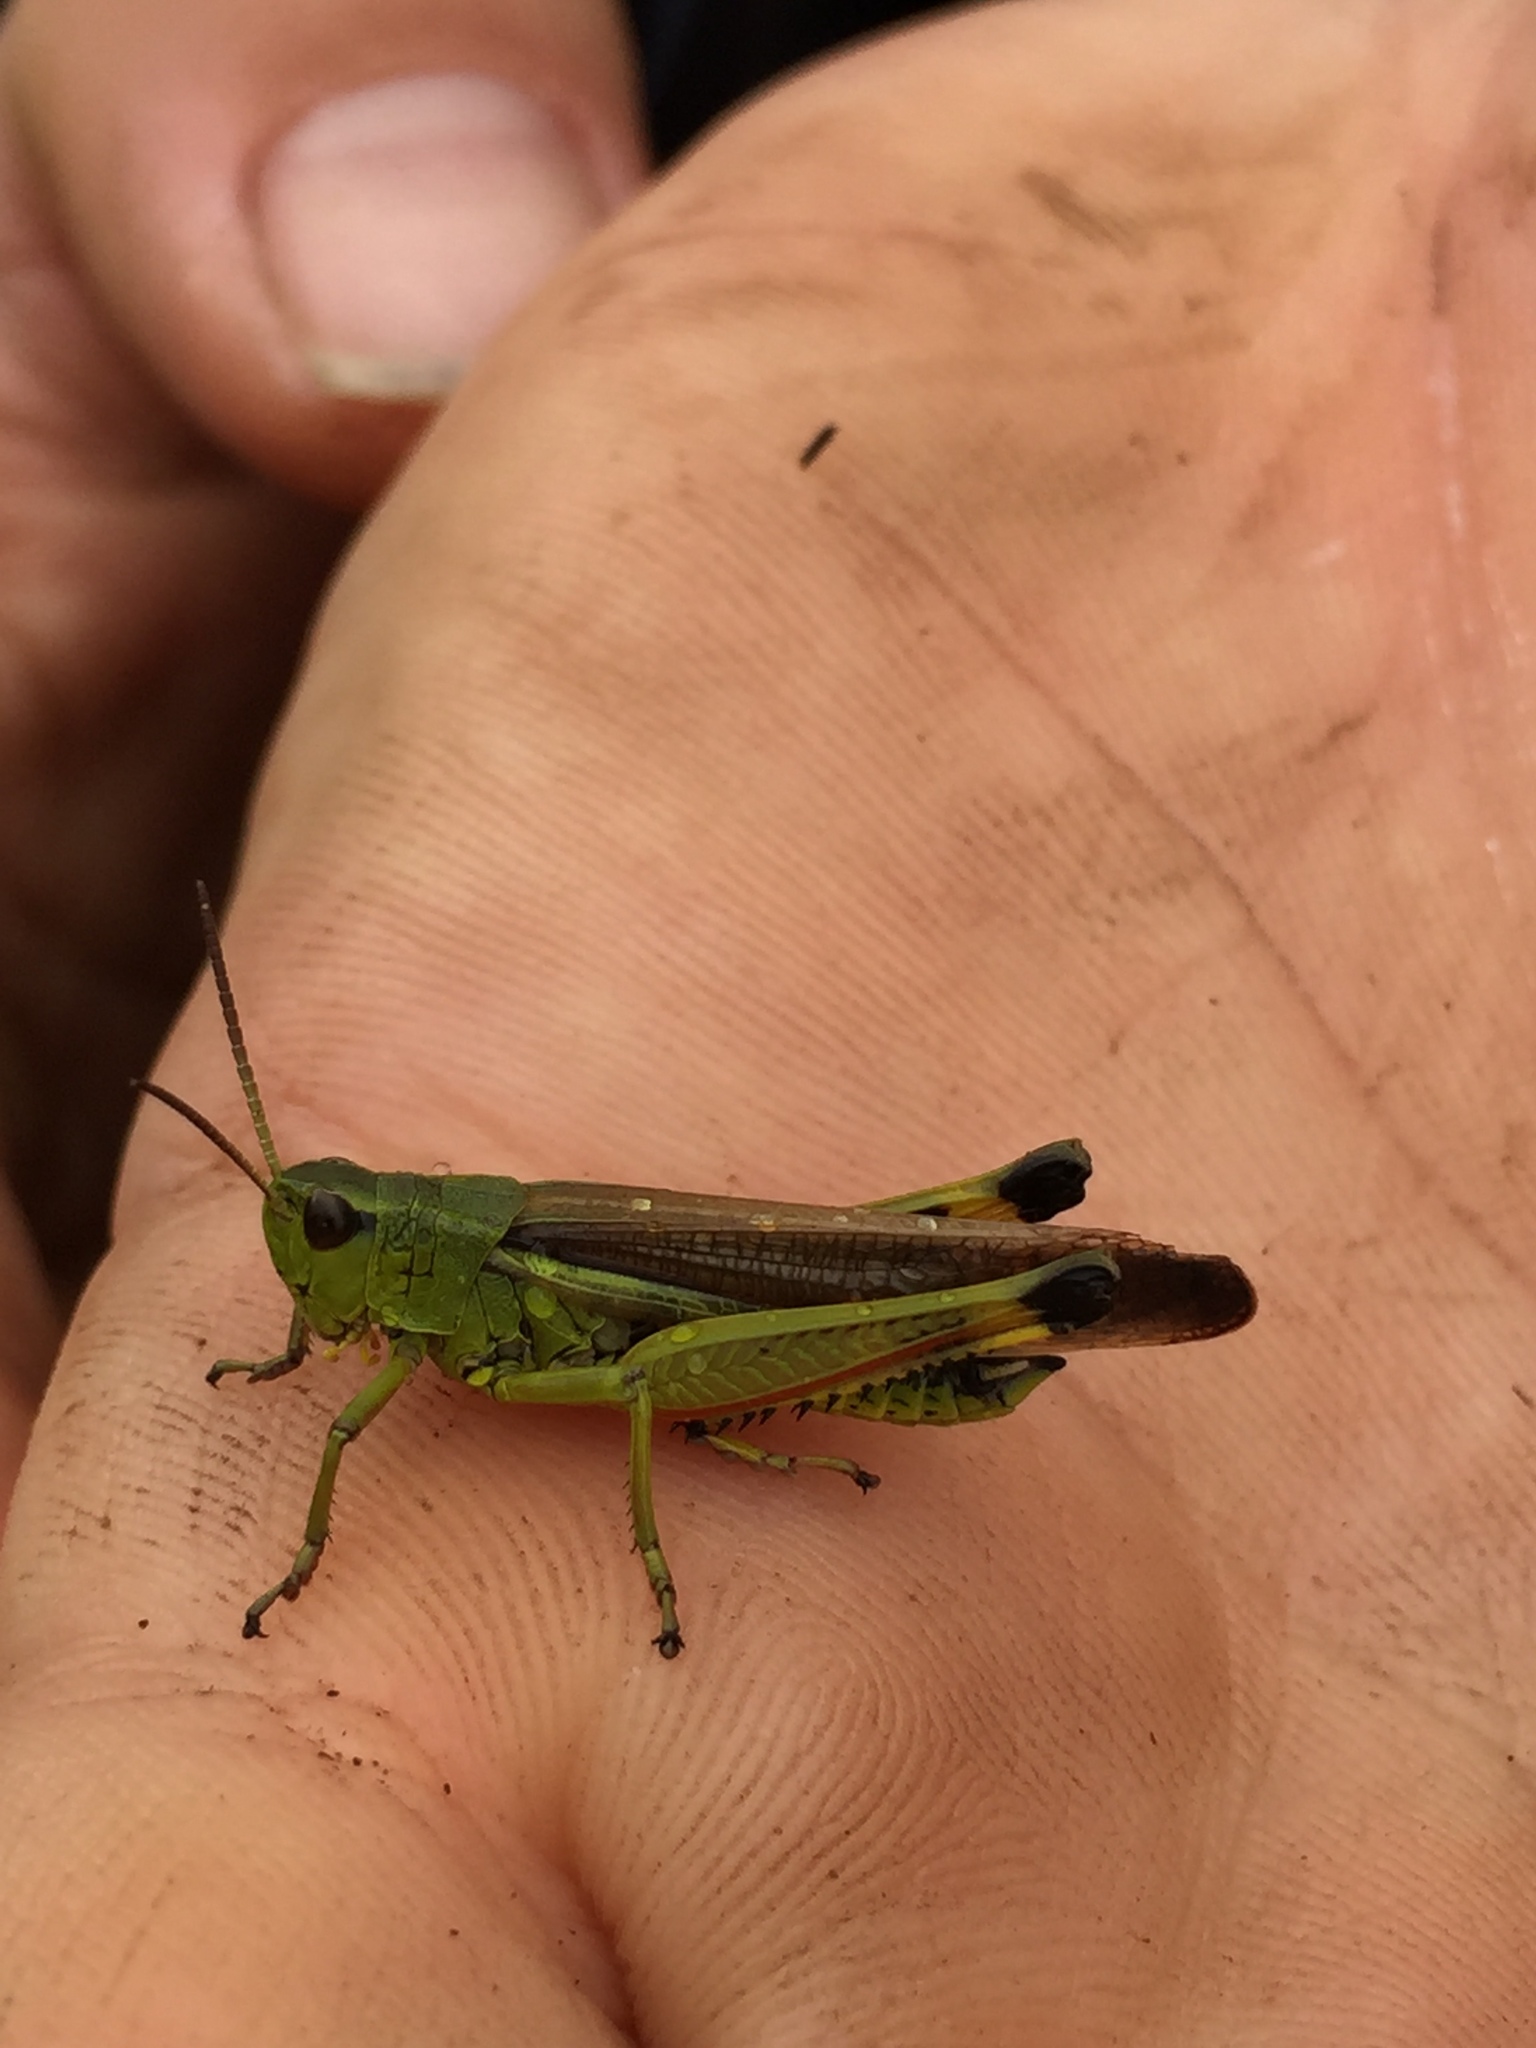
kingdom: Animalia
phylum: Arthropoda
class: Insecta
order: Orthoptera
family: Acrididae
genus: Stethophyma
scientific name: Stethophyma grossum
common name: Large marsh grasshopper
